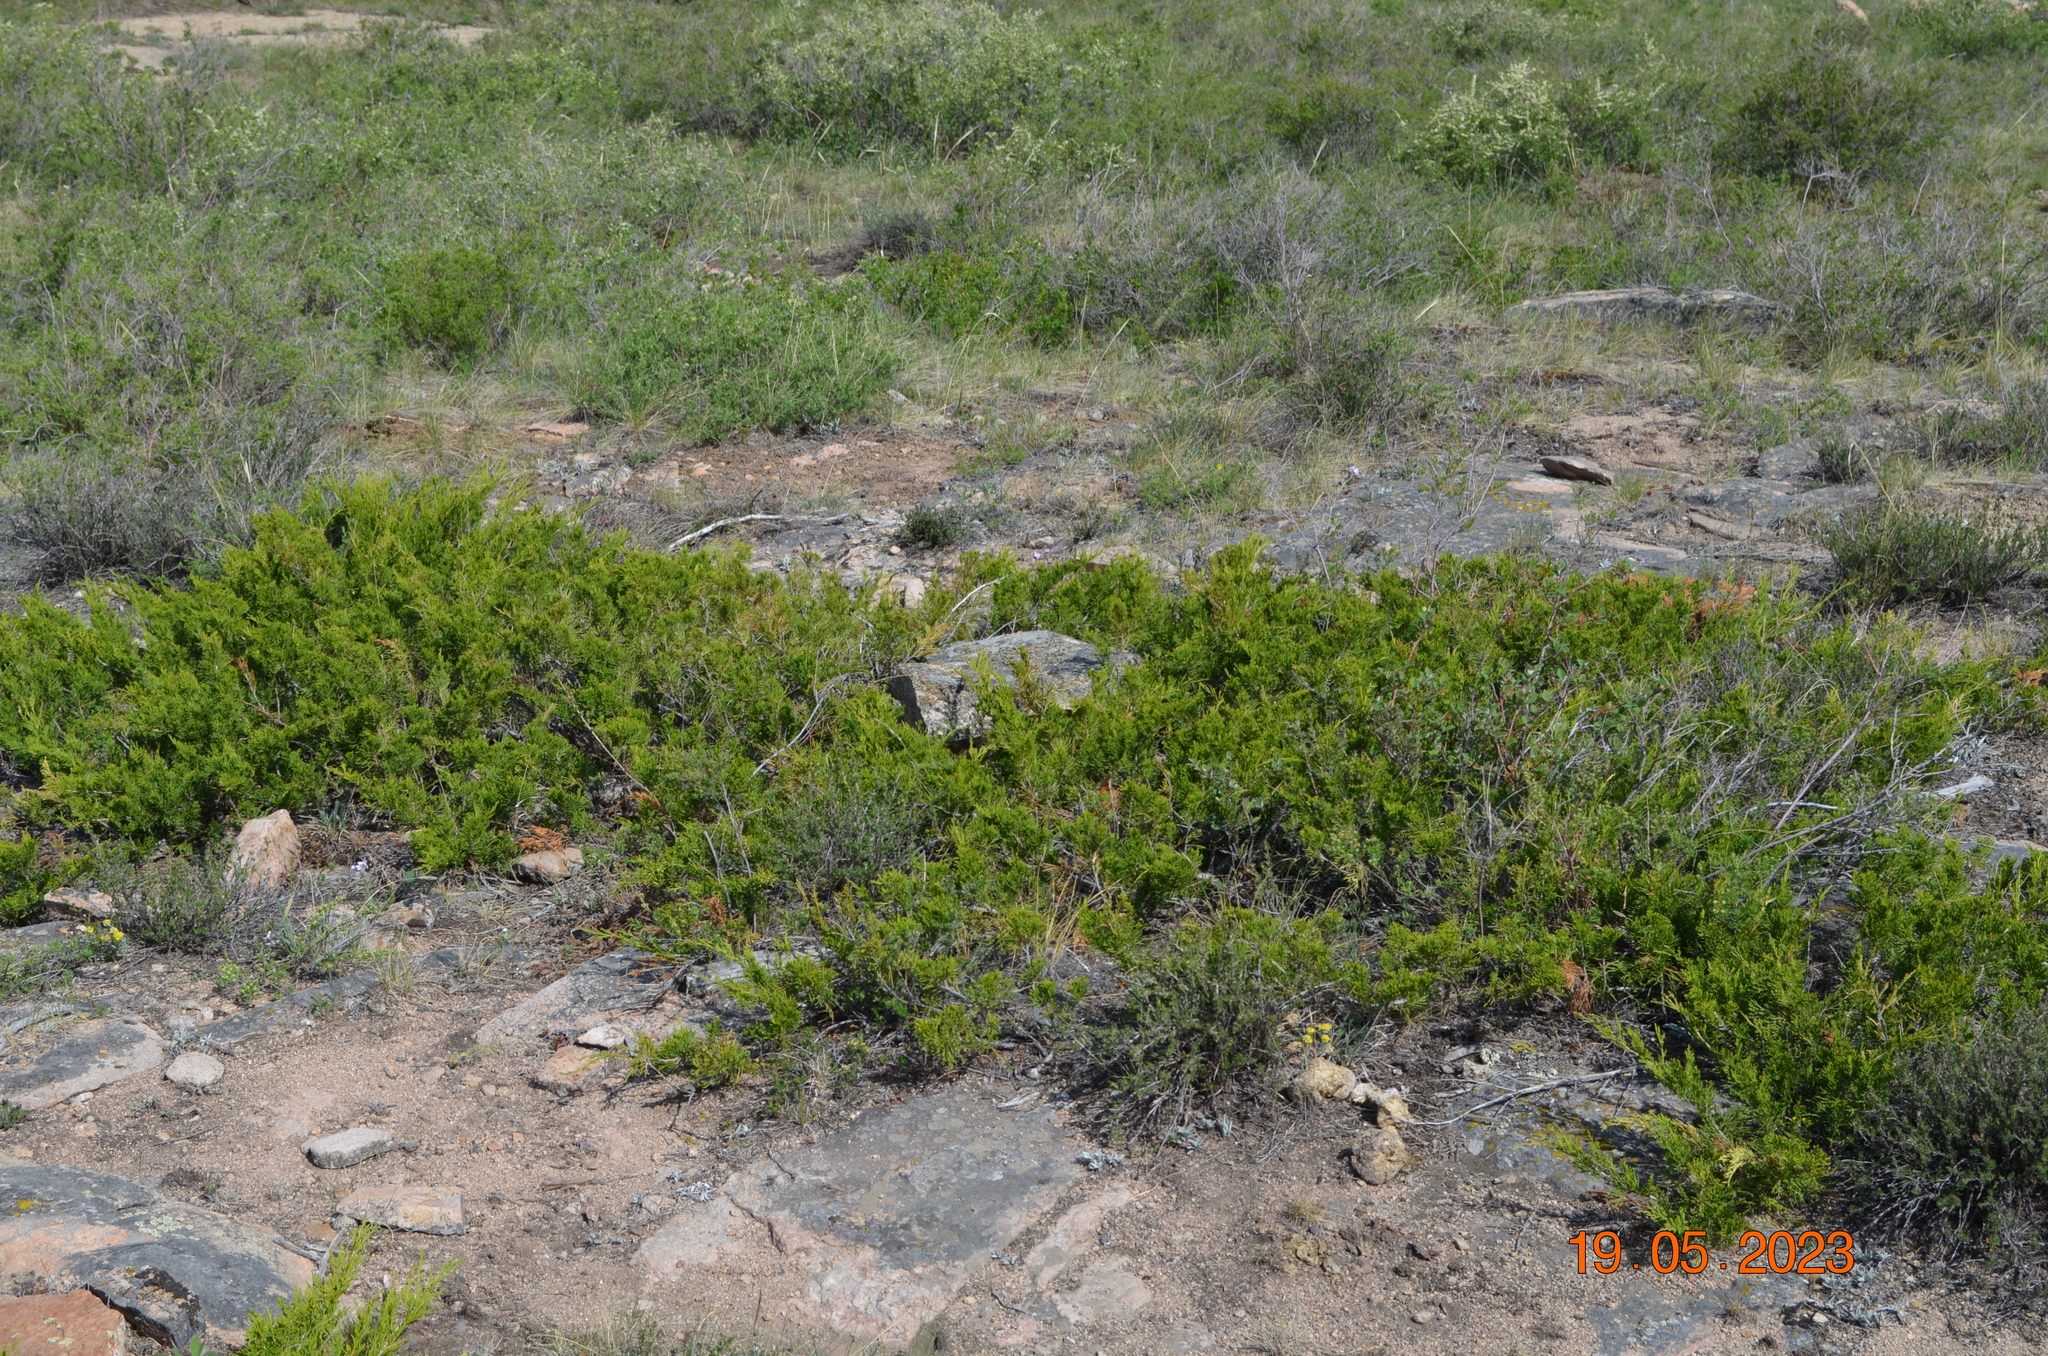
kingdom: Plantae
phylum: Tracheophyta
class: Pinopsida
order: Pinales
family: Cupressaceae
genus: Juniperus
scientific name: Juniperus sabina
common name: Savin
